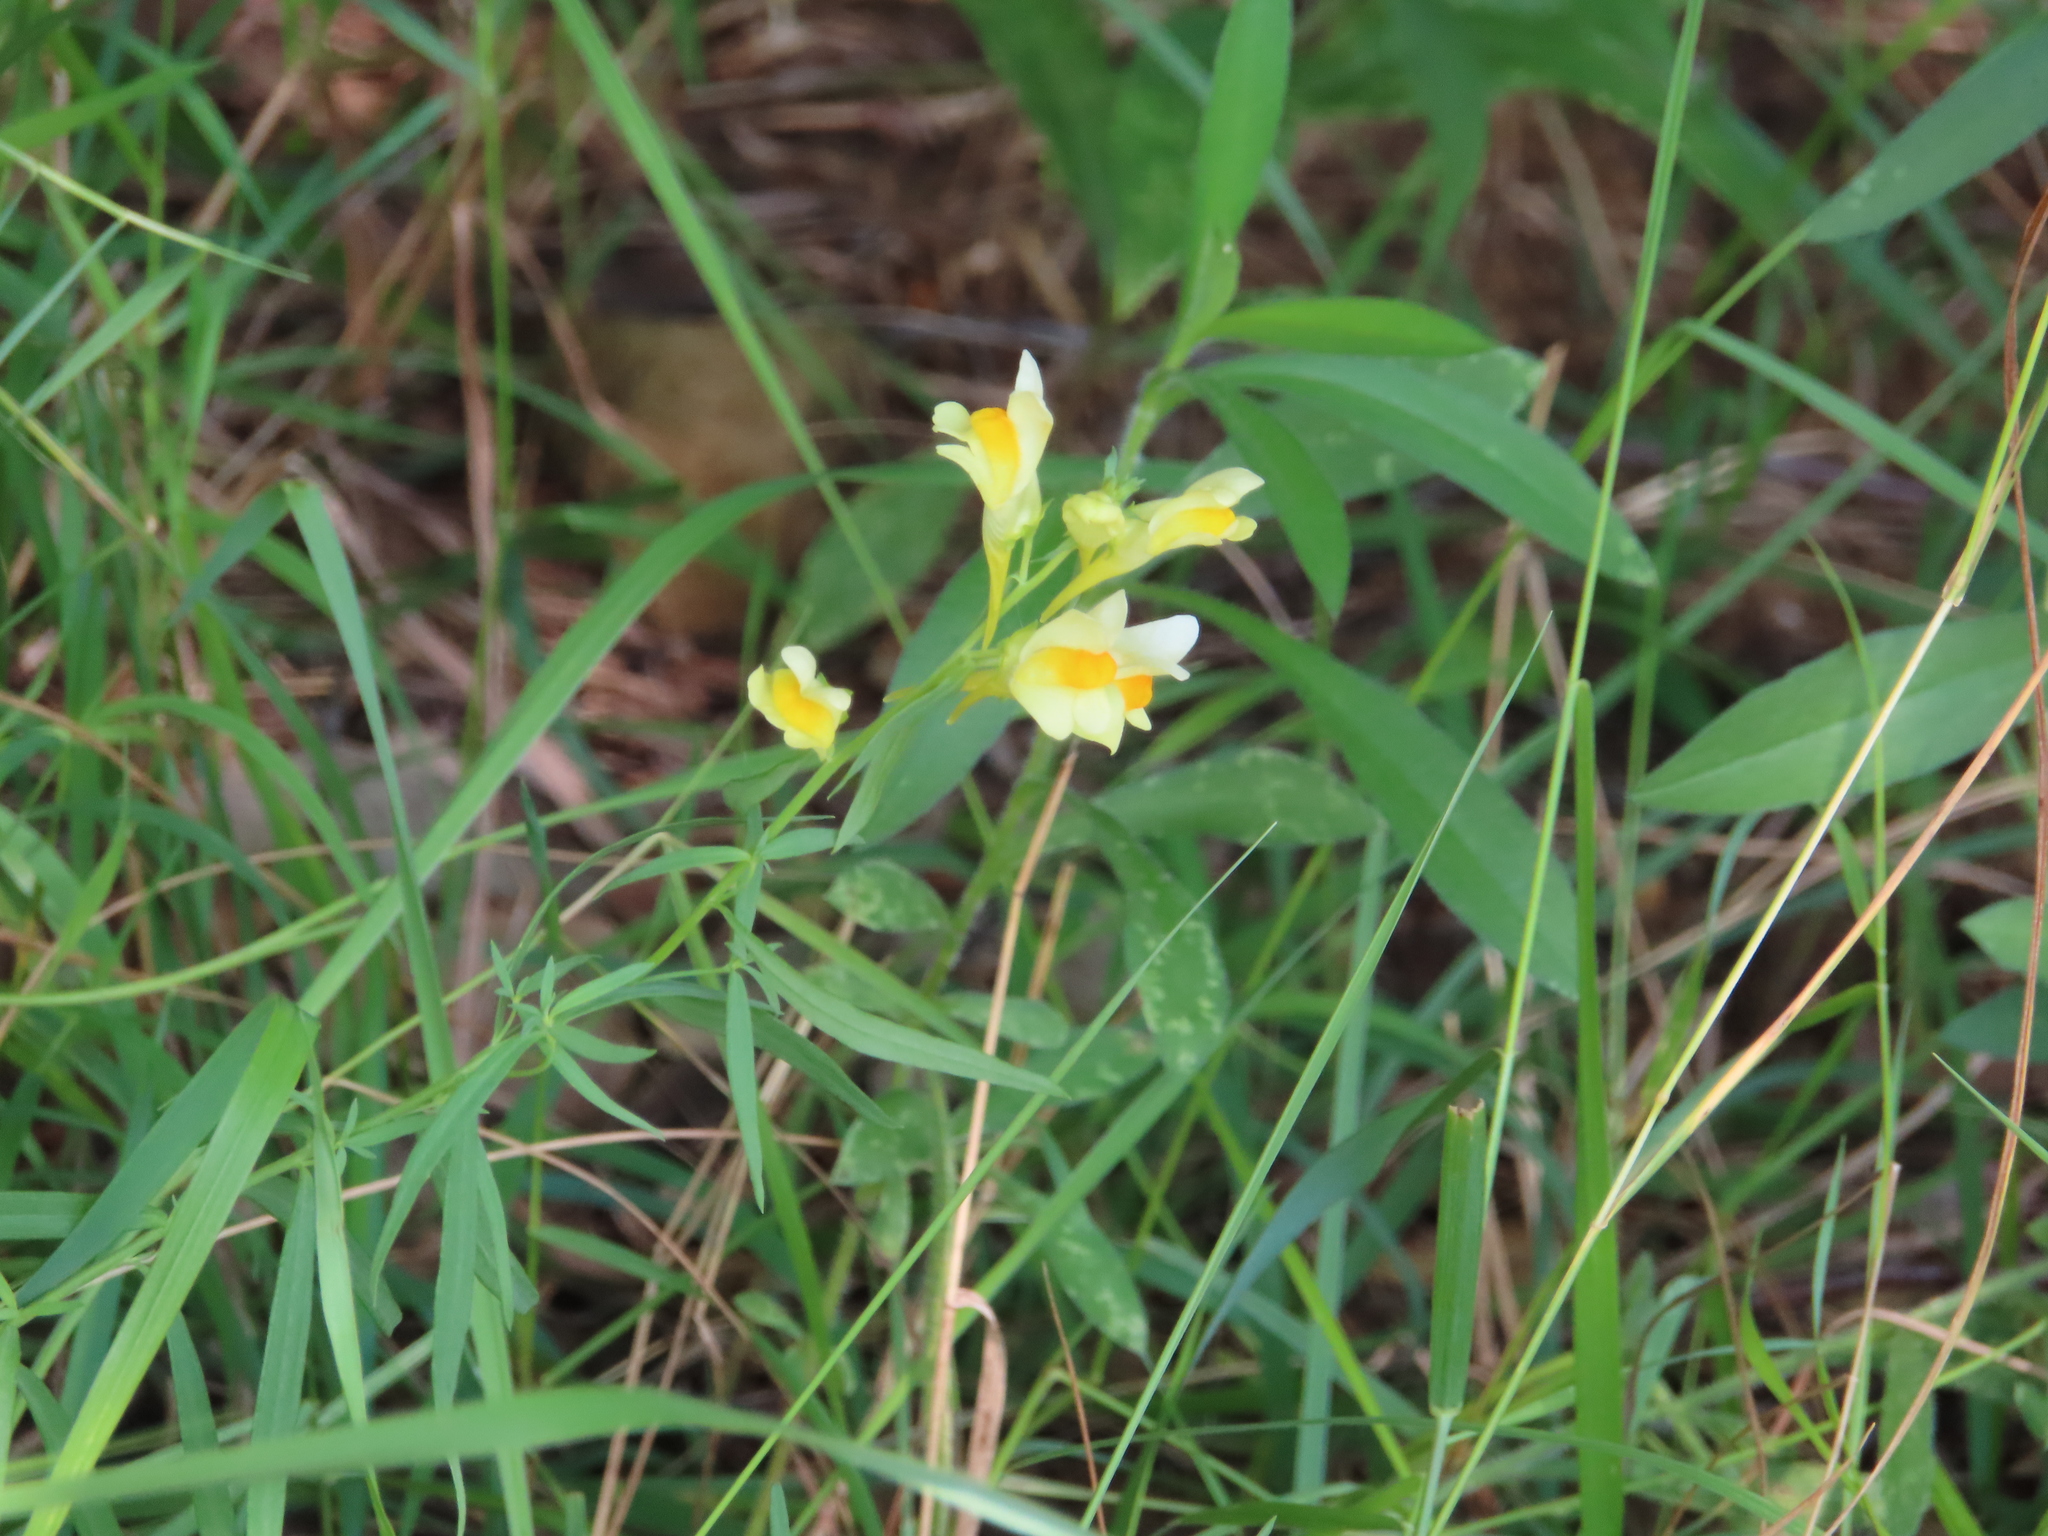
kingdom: Plantae
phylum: Tracheophyta
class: Magnoliopsida
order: Lamiales
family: Plantaginaceae
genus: Linaria
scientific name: Linaria vulgaris
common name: Butter and eggs
